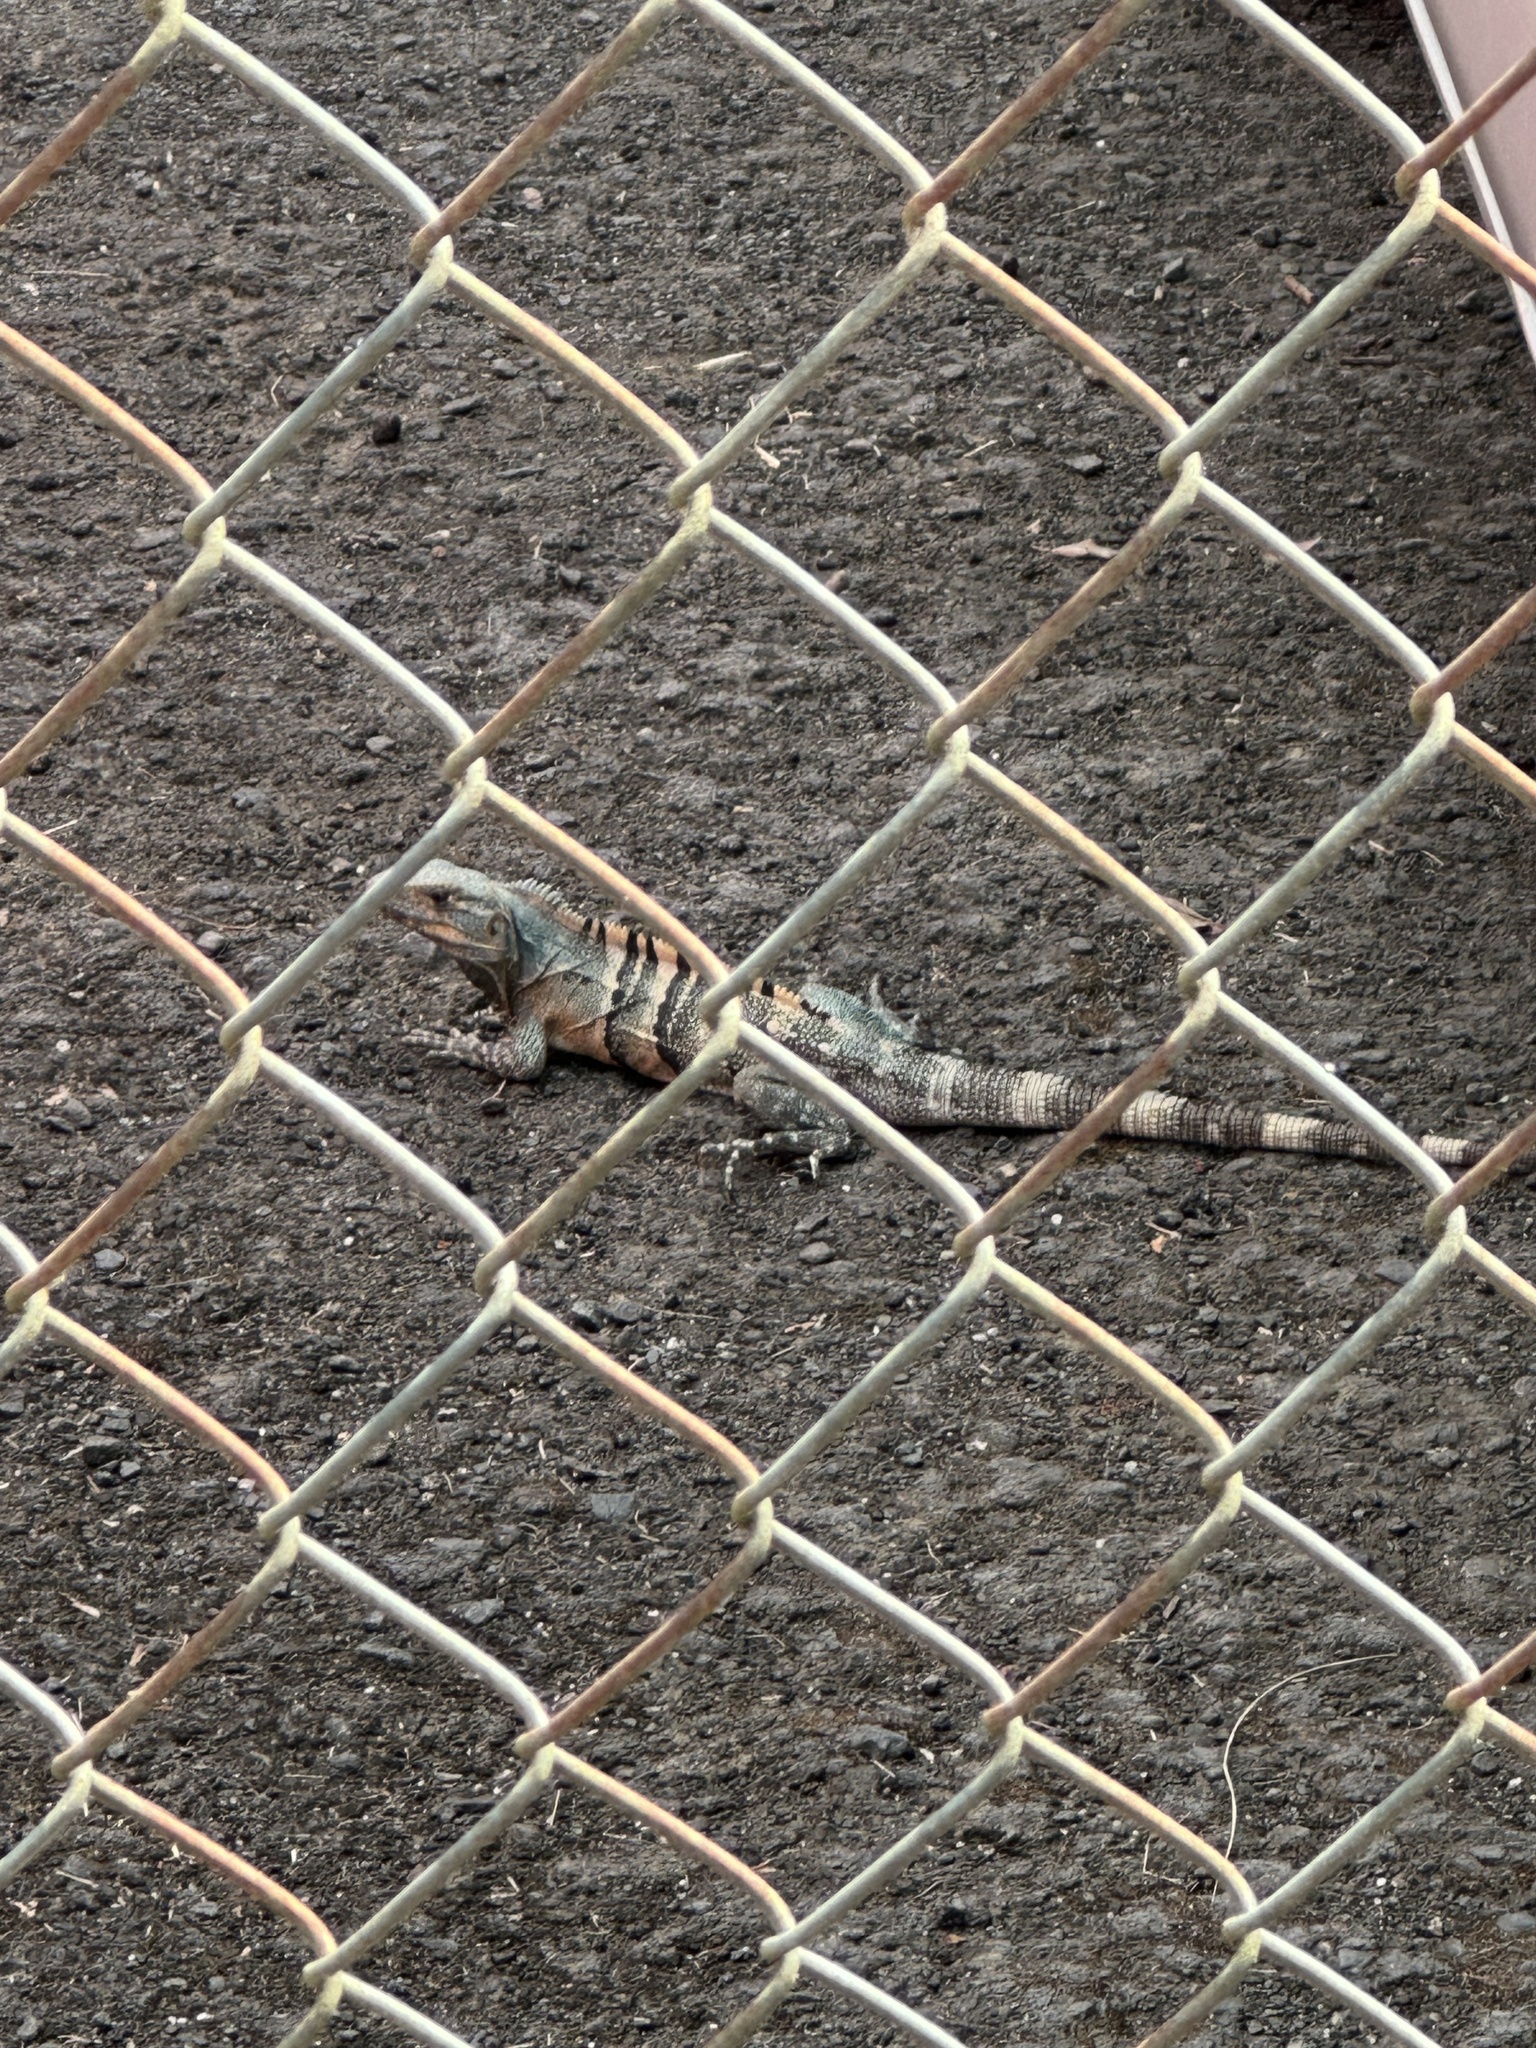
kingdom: Animalia
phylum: Chordata
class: Squamata
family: Iguanidae
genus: Ctenosaura
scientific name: Ctenosaura similis
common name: Black spiny-tailed iguana
